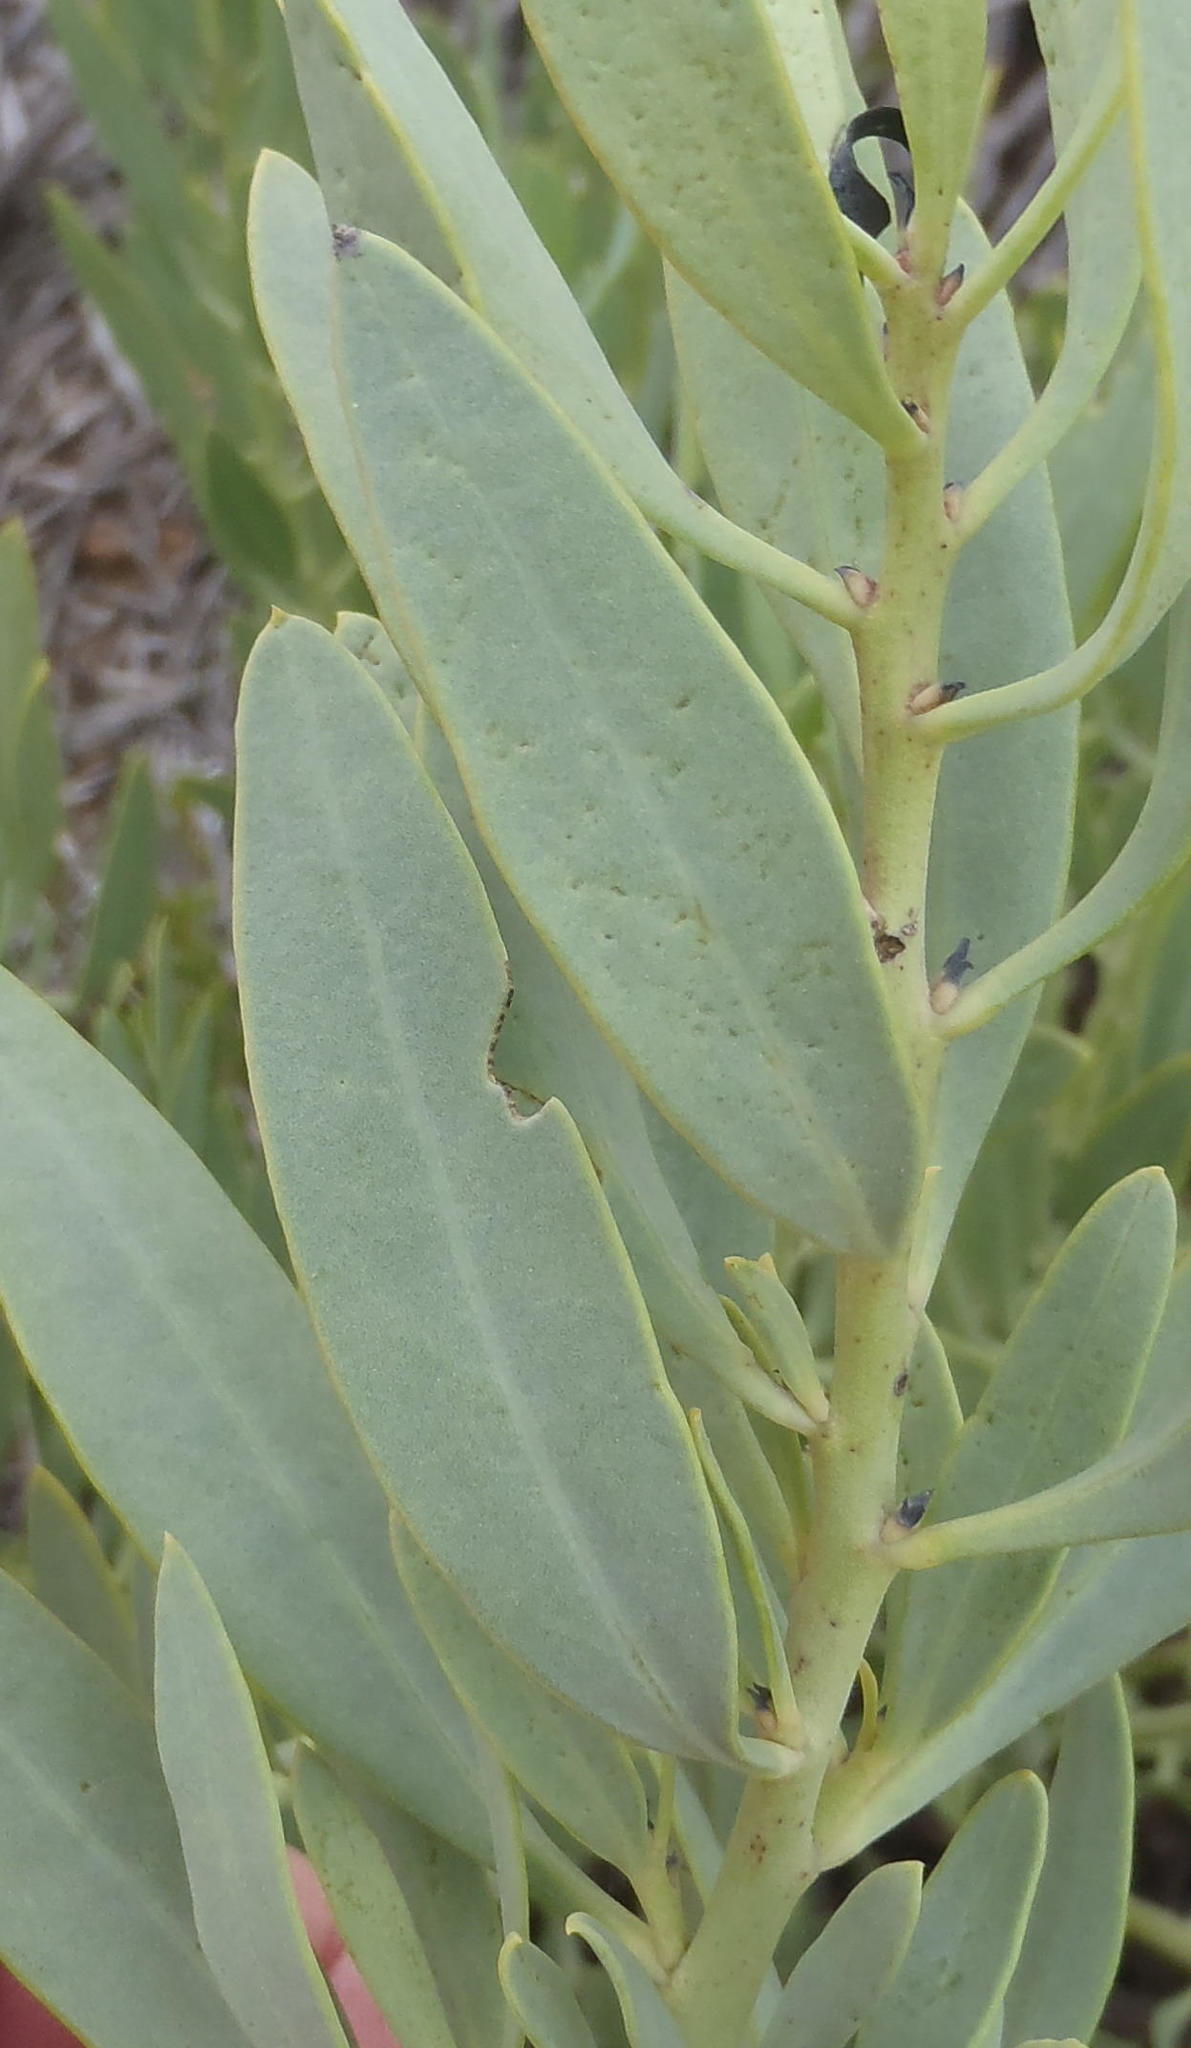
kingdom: Plantae
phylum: Tracheophyta
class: Magnoliopsida
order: Fabales
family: Fabaceae
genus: Rafnia
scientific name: Rafnia racemosa
